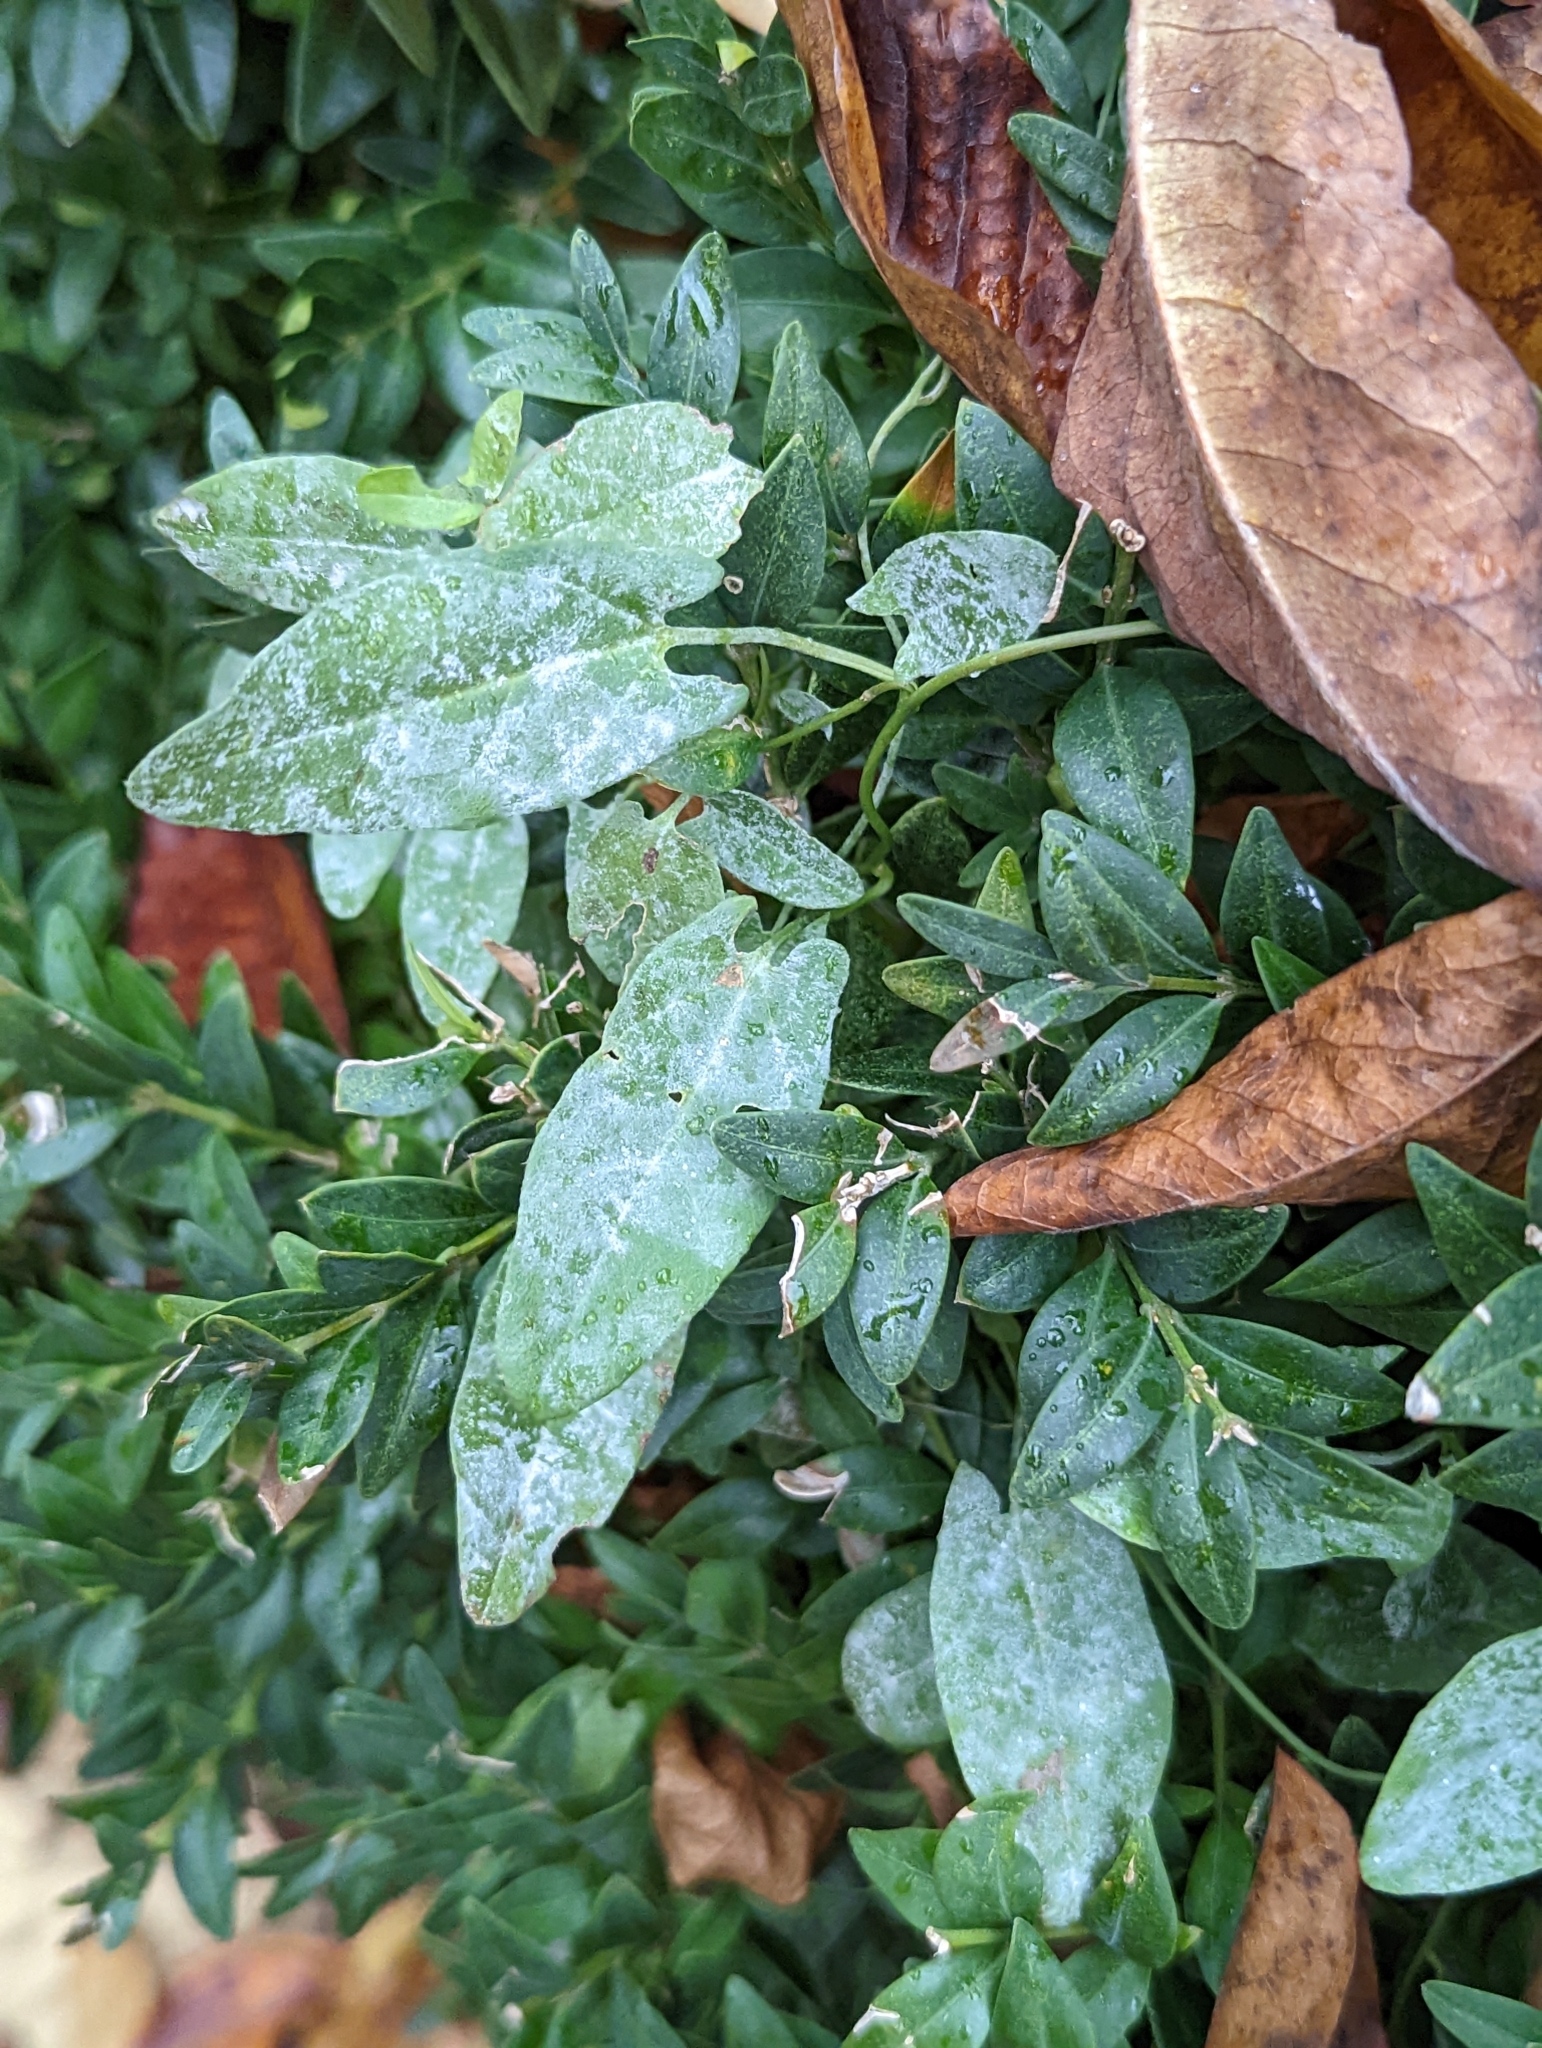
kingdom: Fungi
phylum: Ascomycota
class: Leotiomycetes
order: Helotiales
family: Erysiphaceae
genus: Erysiphe
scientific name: Erysiphe convolvuli
